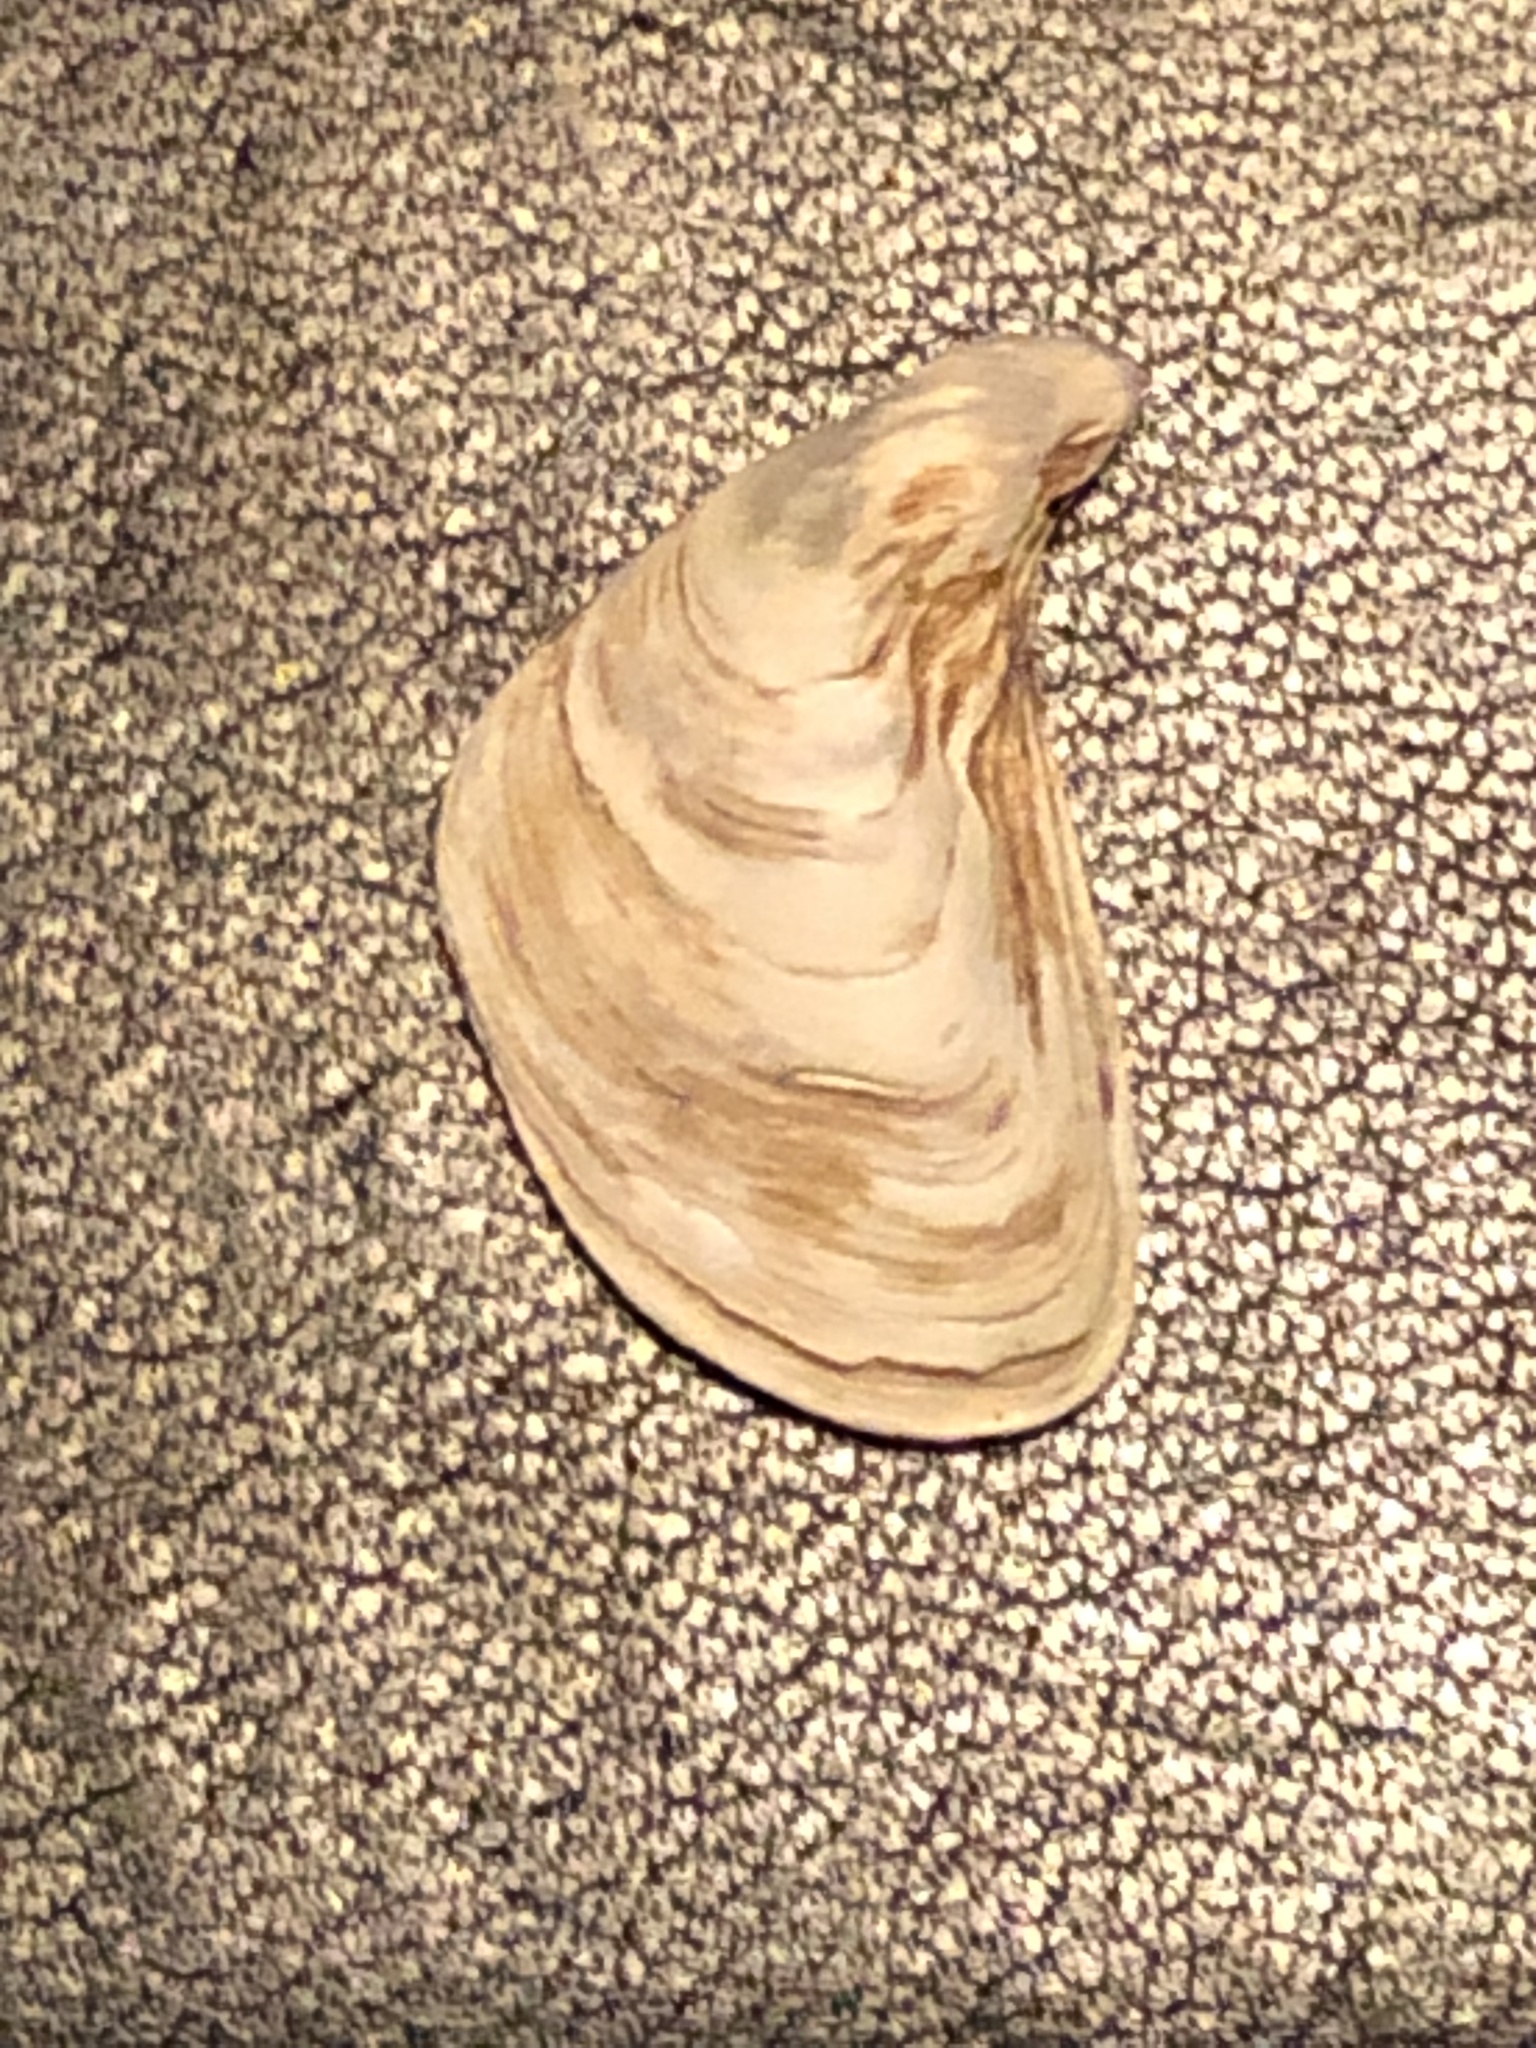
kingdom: Animalia
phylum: Mollusca
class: Bivalvia
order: Myida
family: Dreissenidae
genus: Dreissena
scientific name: Dreissena bugensis
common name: Quagga mussel
